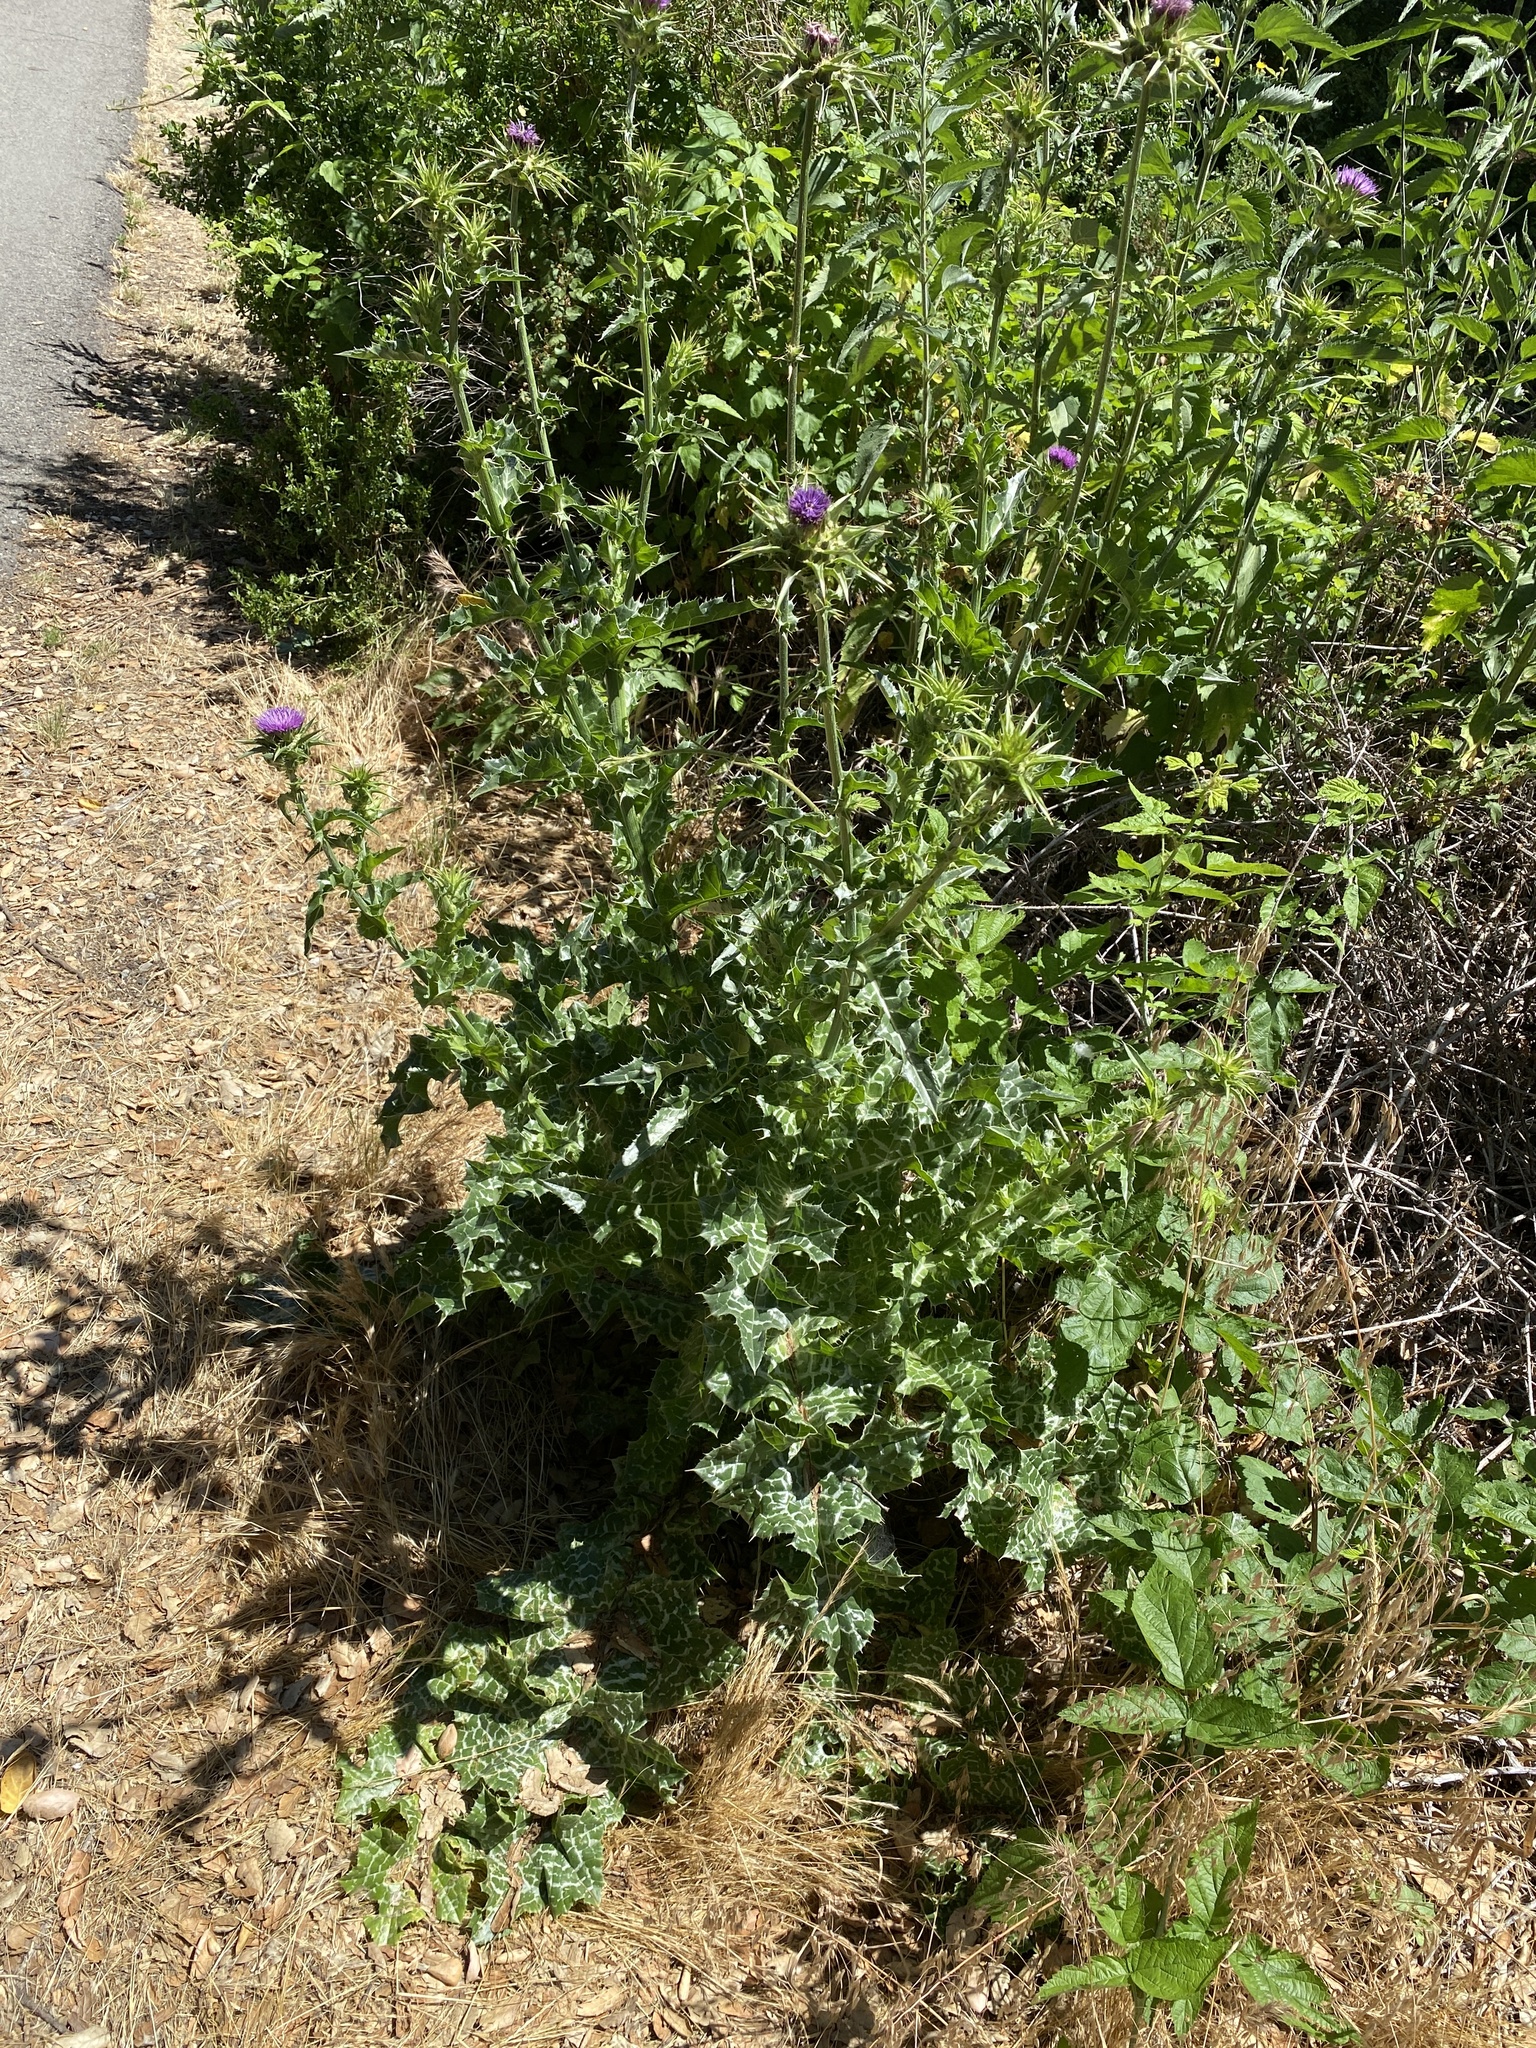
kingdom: Plantae
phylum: Tracheophyta
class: Magnoliopsida
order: Asterales
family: Asteraceae
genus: Silybum
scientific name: Silybum marianum
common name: Milk thistle
